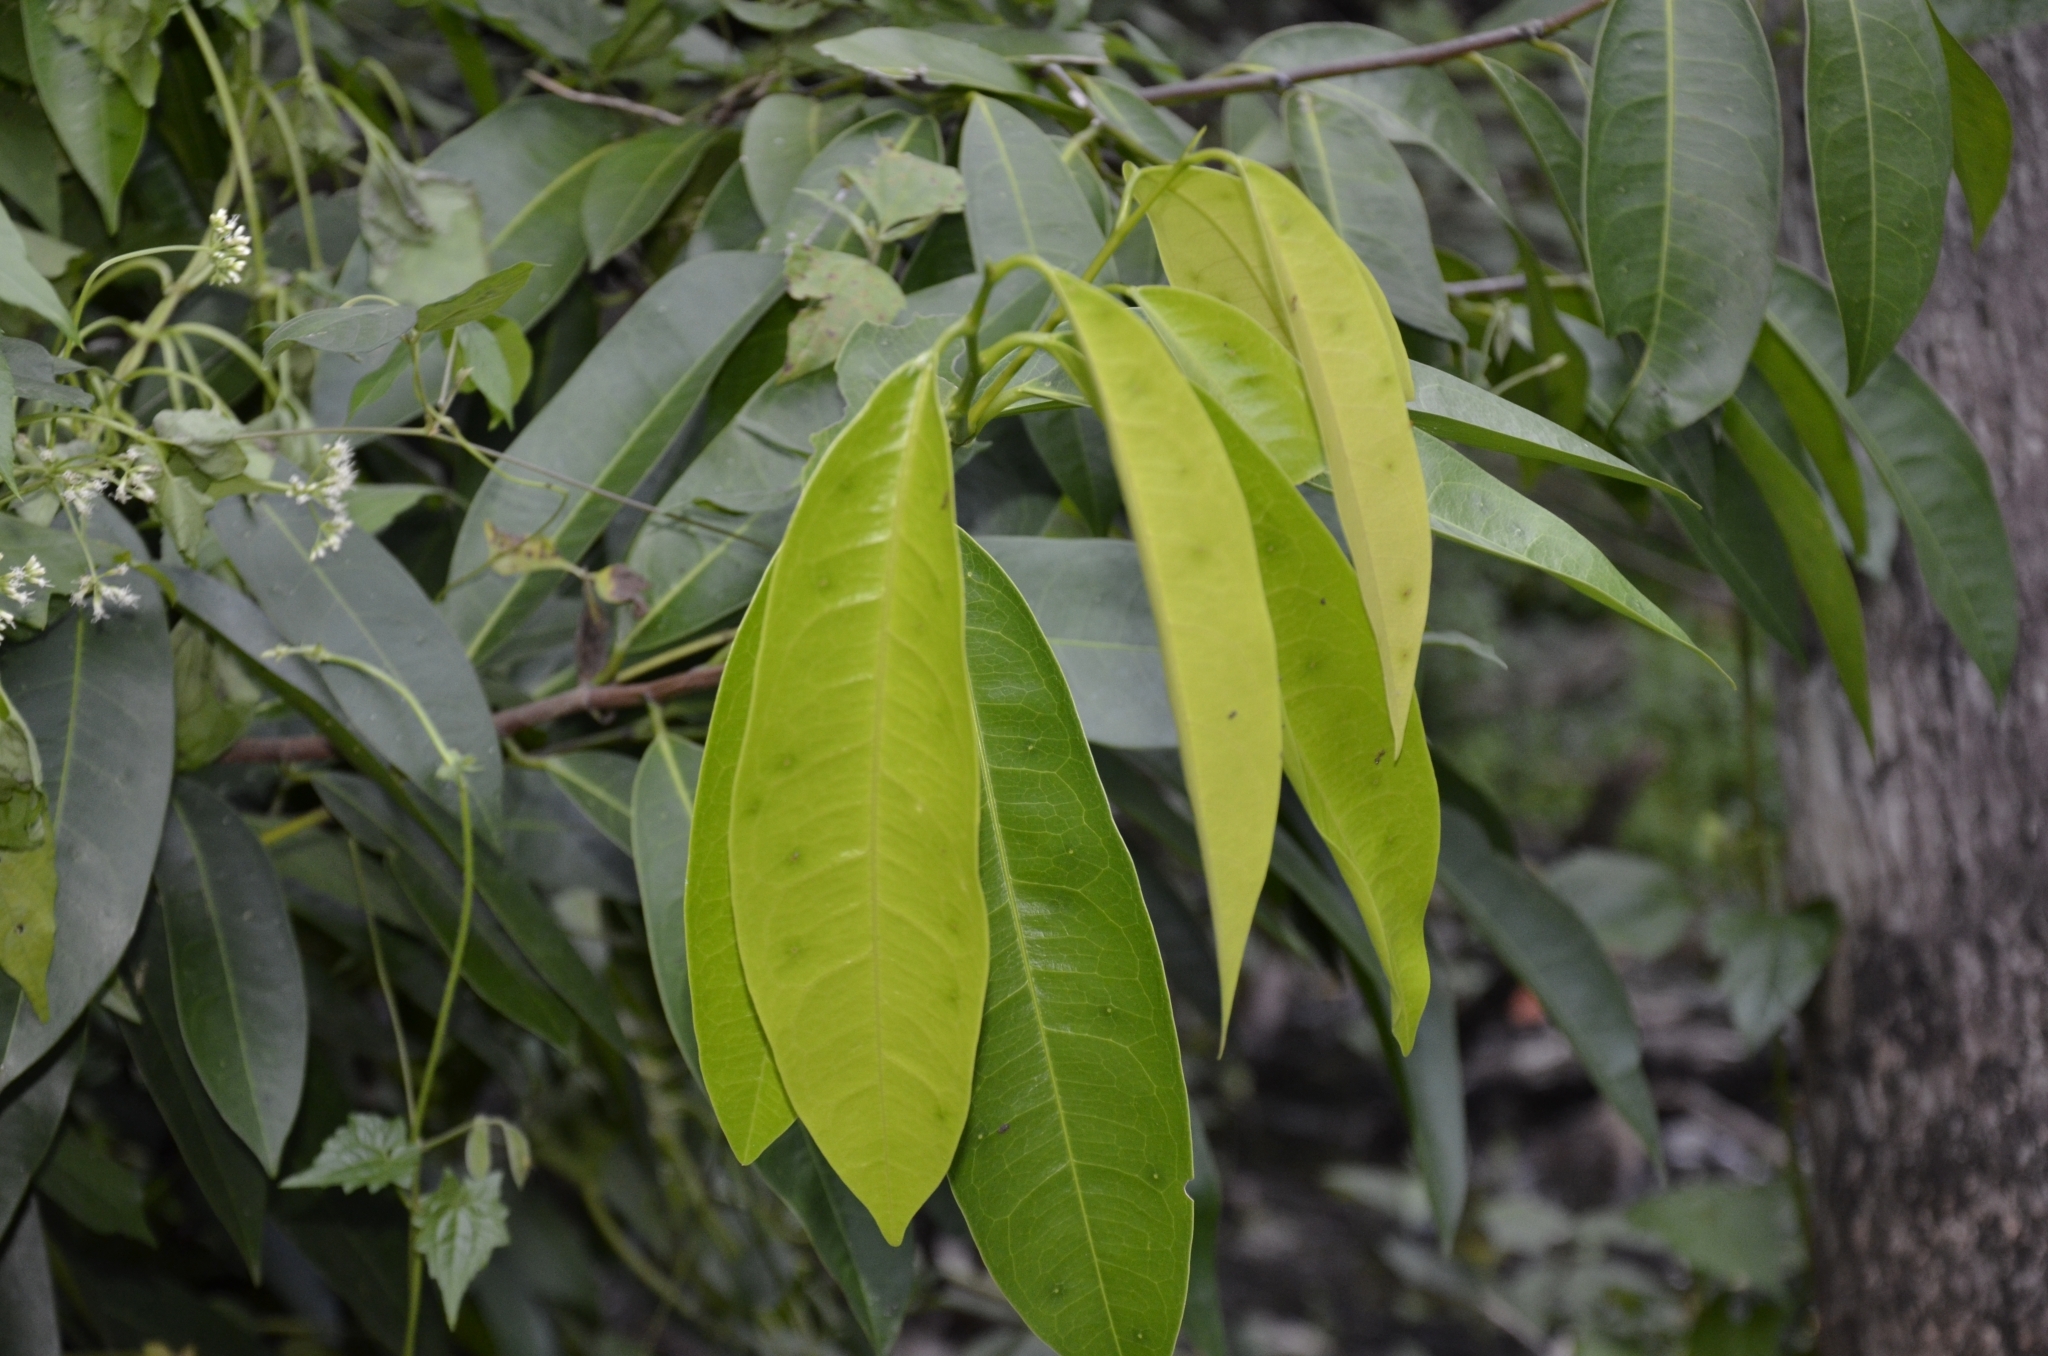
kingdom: Plantae
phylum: Tracheophyta
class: Magnoliopsida
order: Sapindales
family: Simaroubaceae
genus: Samadera
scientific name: Samadera indica
